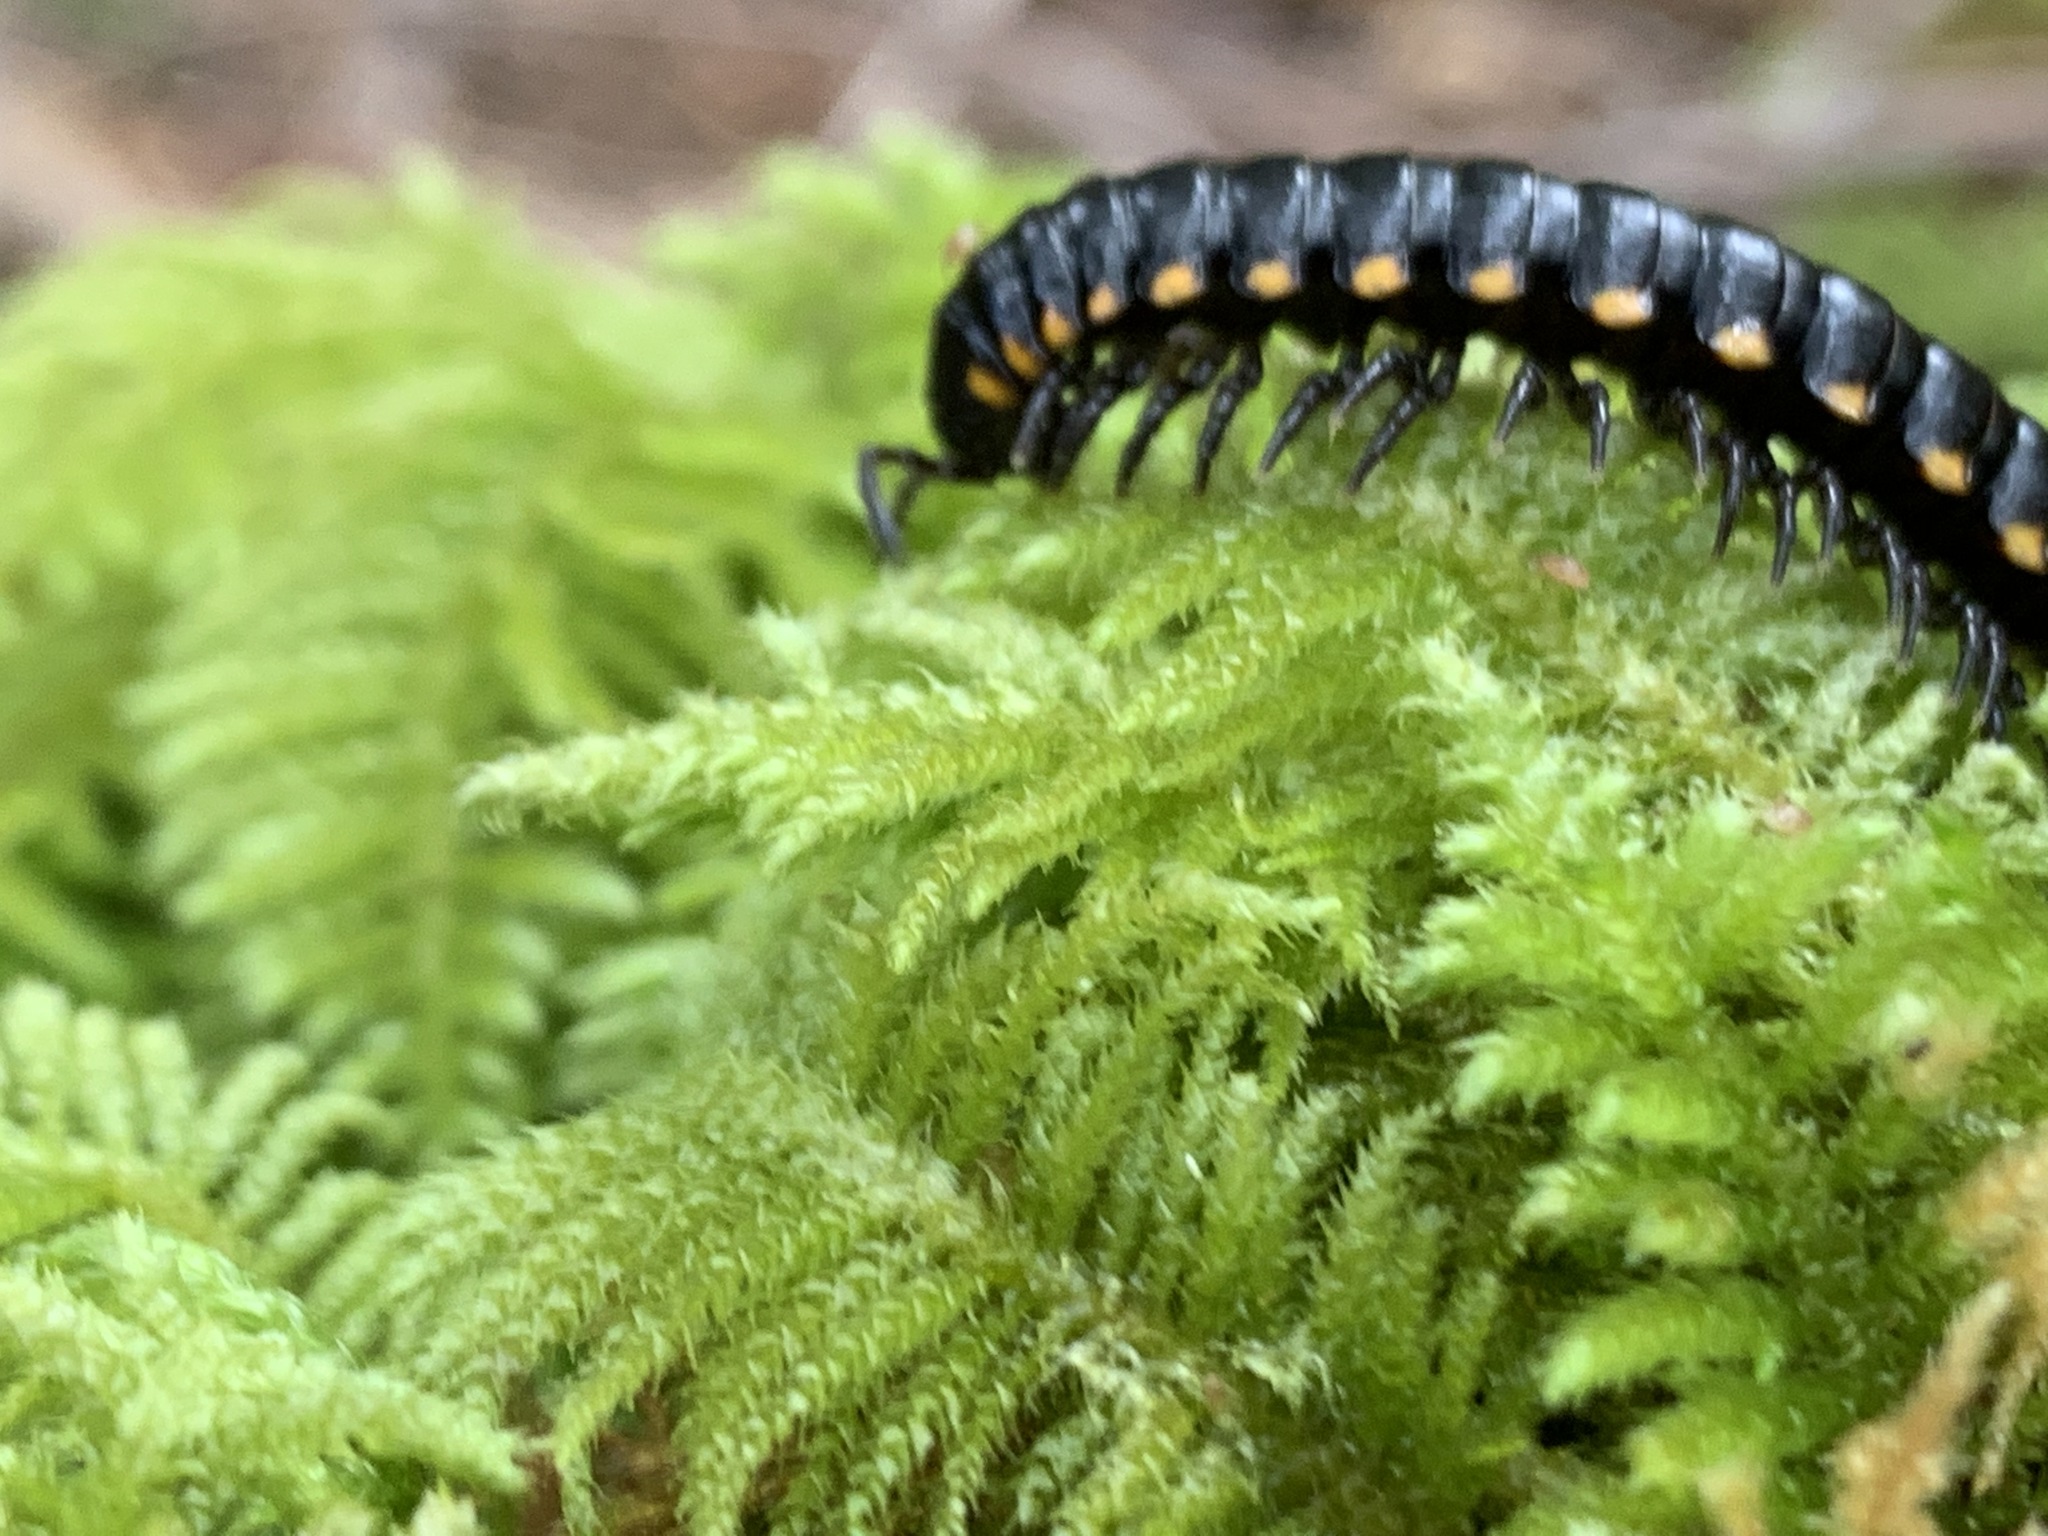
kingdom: Animalia
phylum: Arthropoda
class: Diplopoda
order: Polydesmida
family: Xystodesmidae
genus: Harpaphe
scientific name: Harpaphe haydeniana
